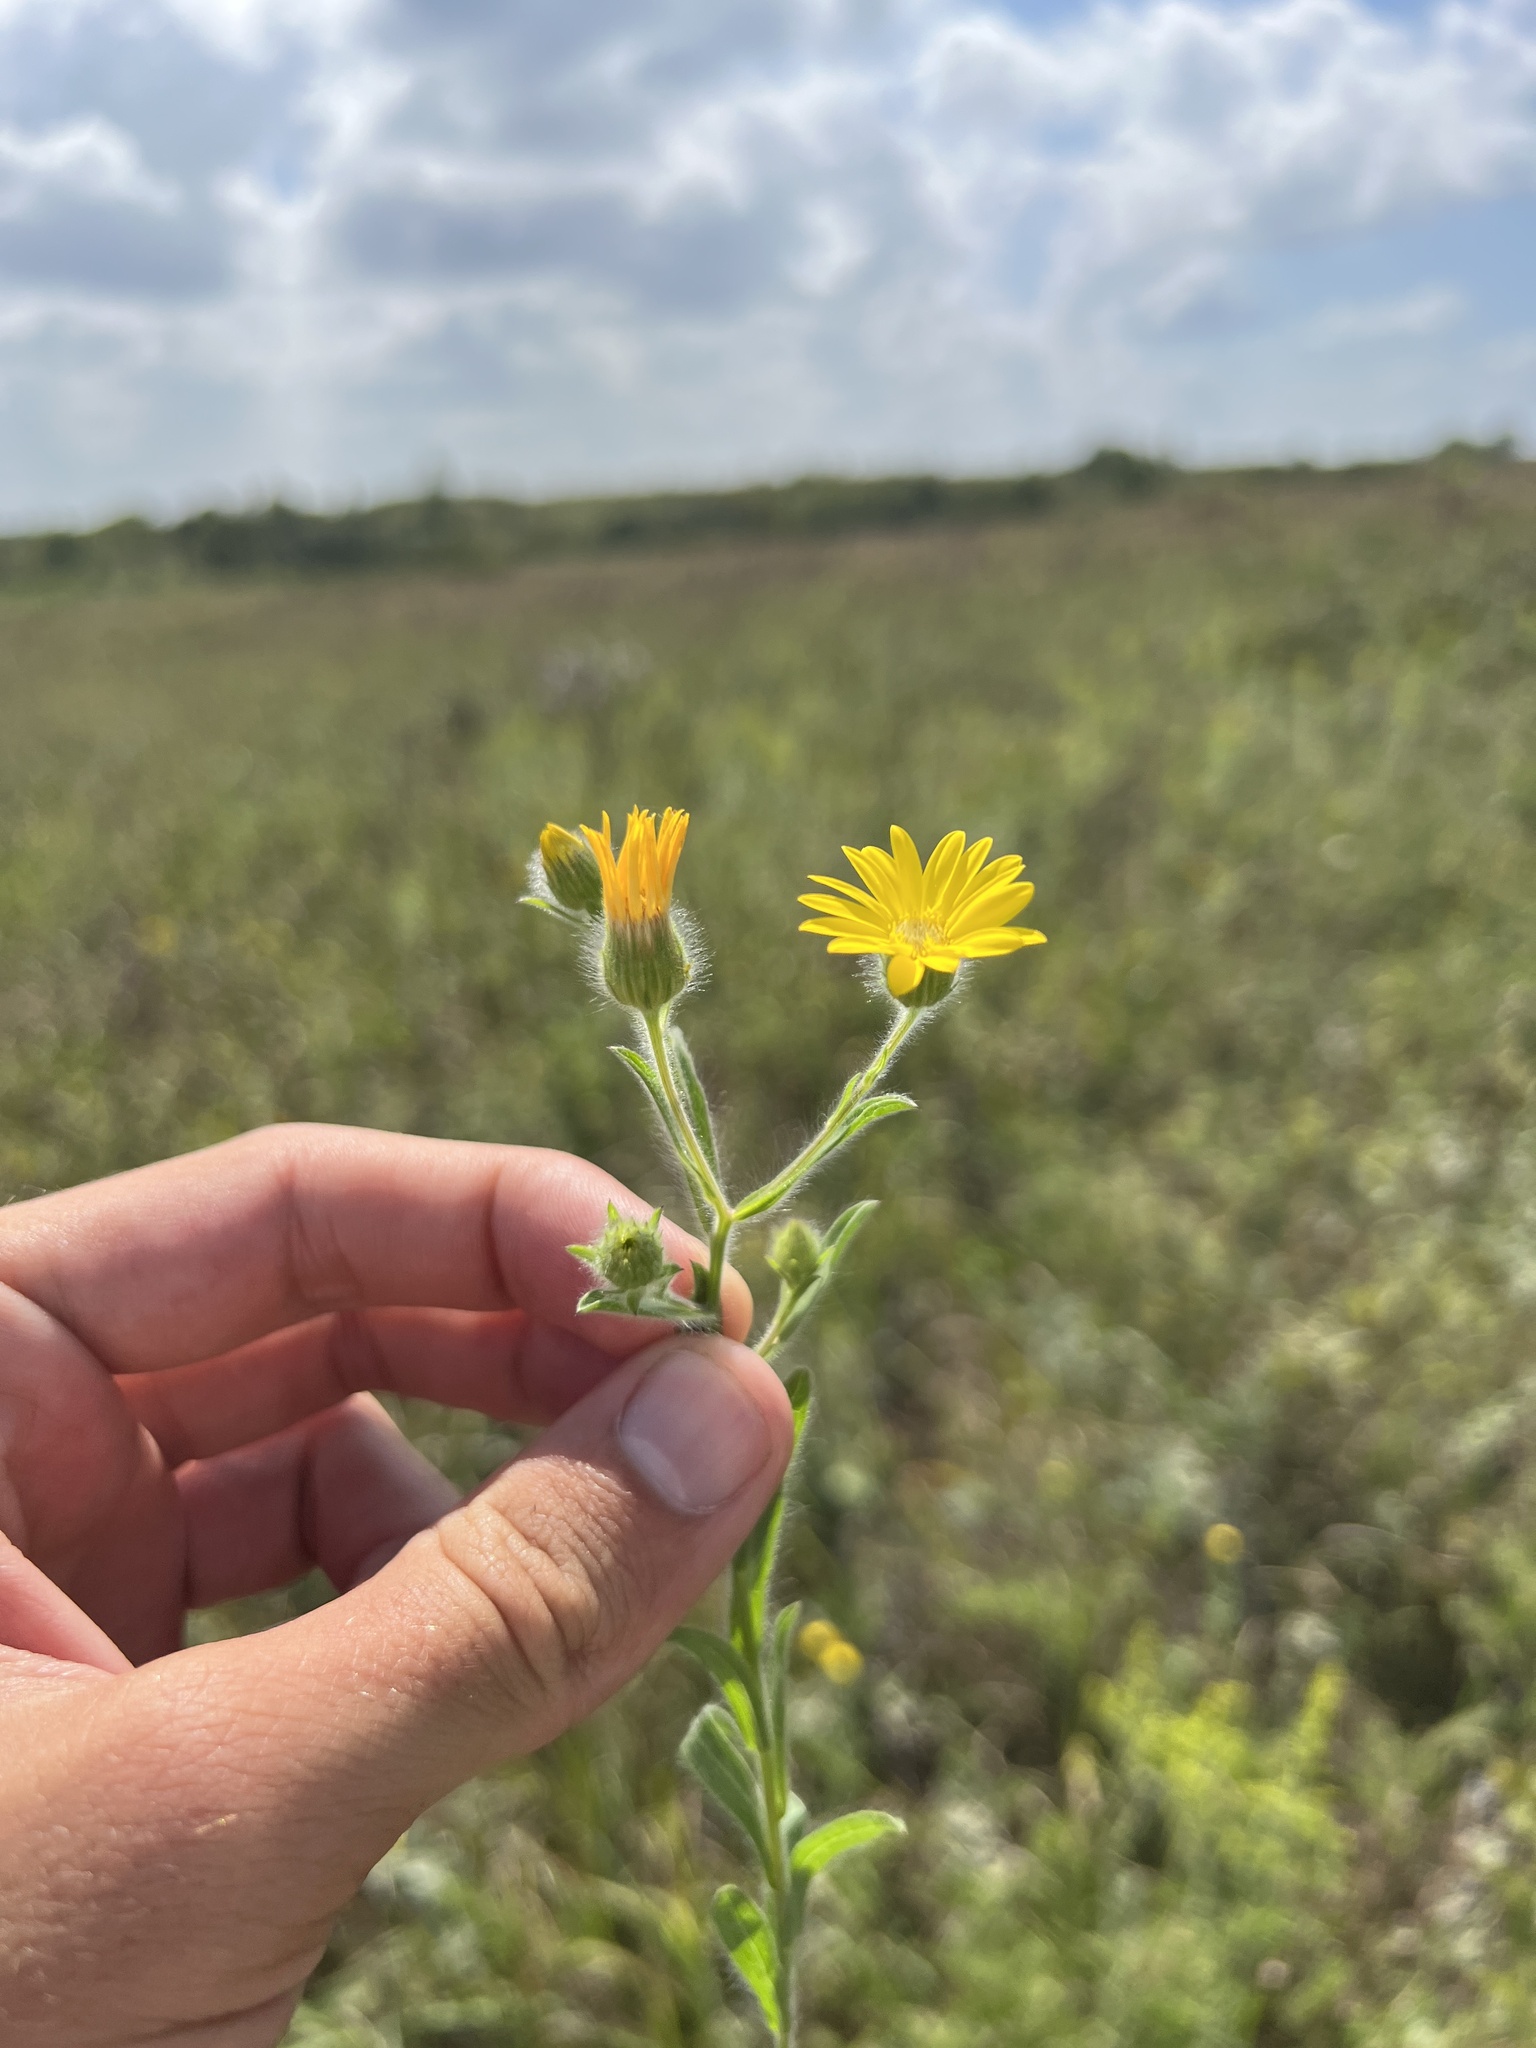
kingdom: Plantae
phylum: Tracheophyta
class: Magnoliopsida
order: Asterales
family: Asteraceae
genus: Bradburia
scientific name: Bradburia pilosa
